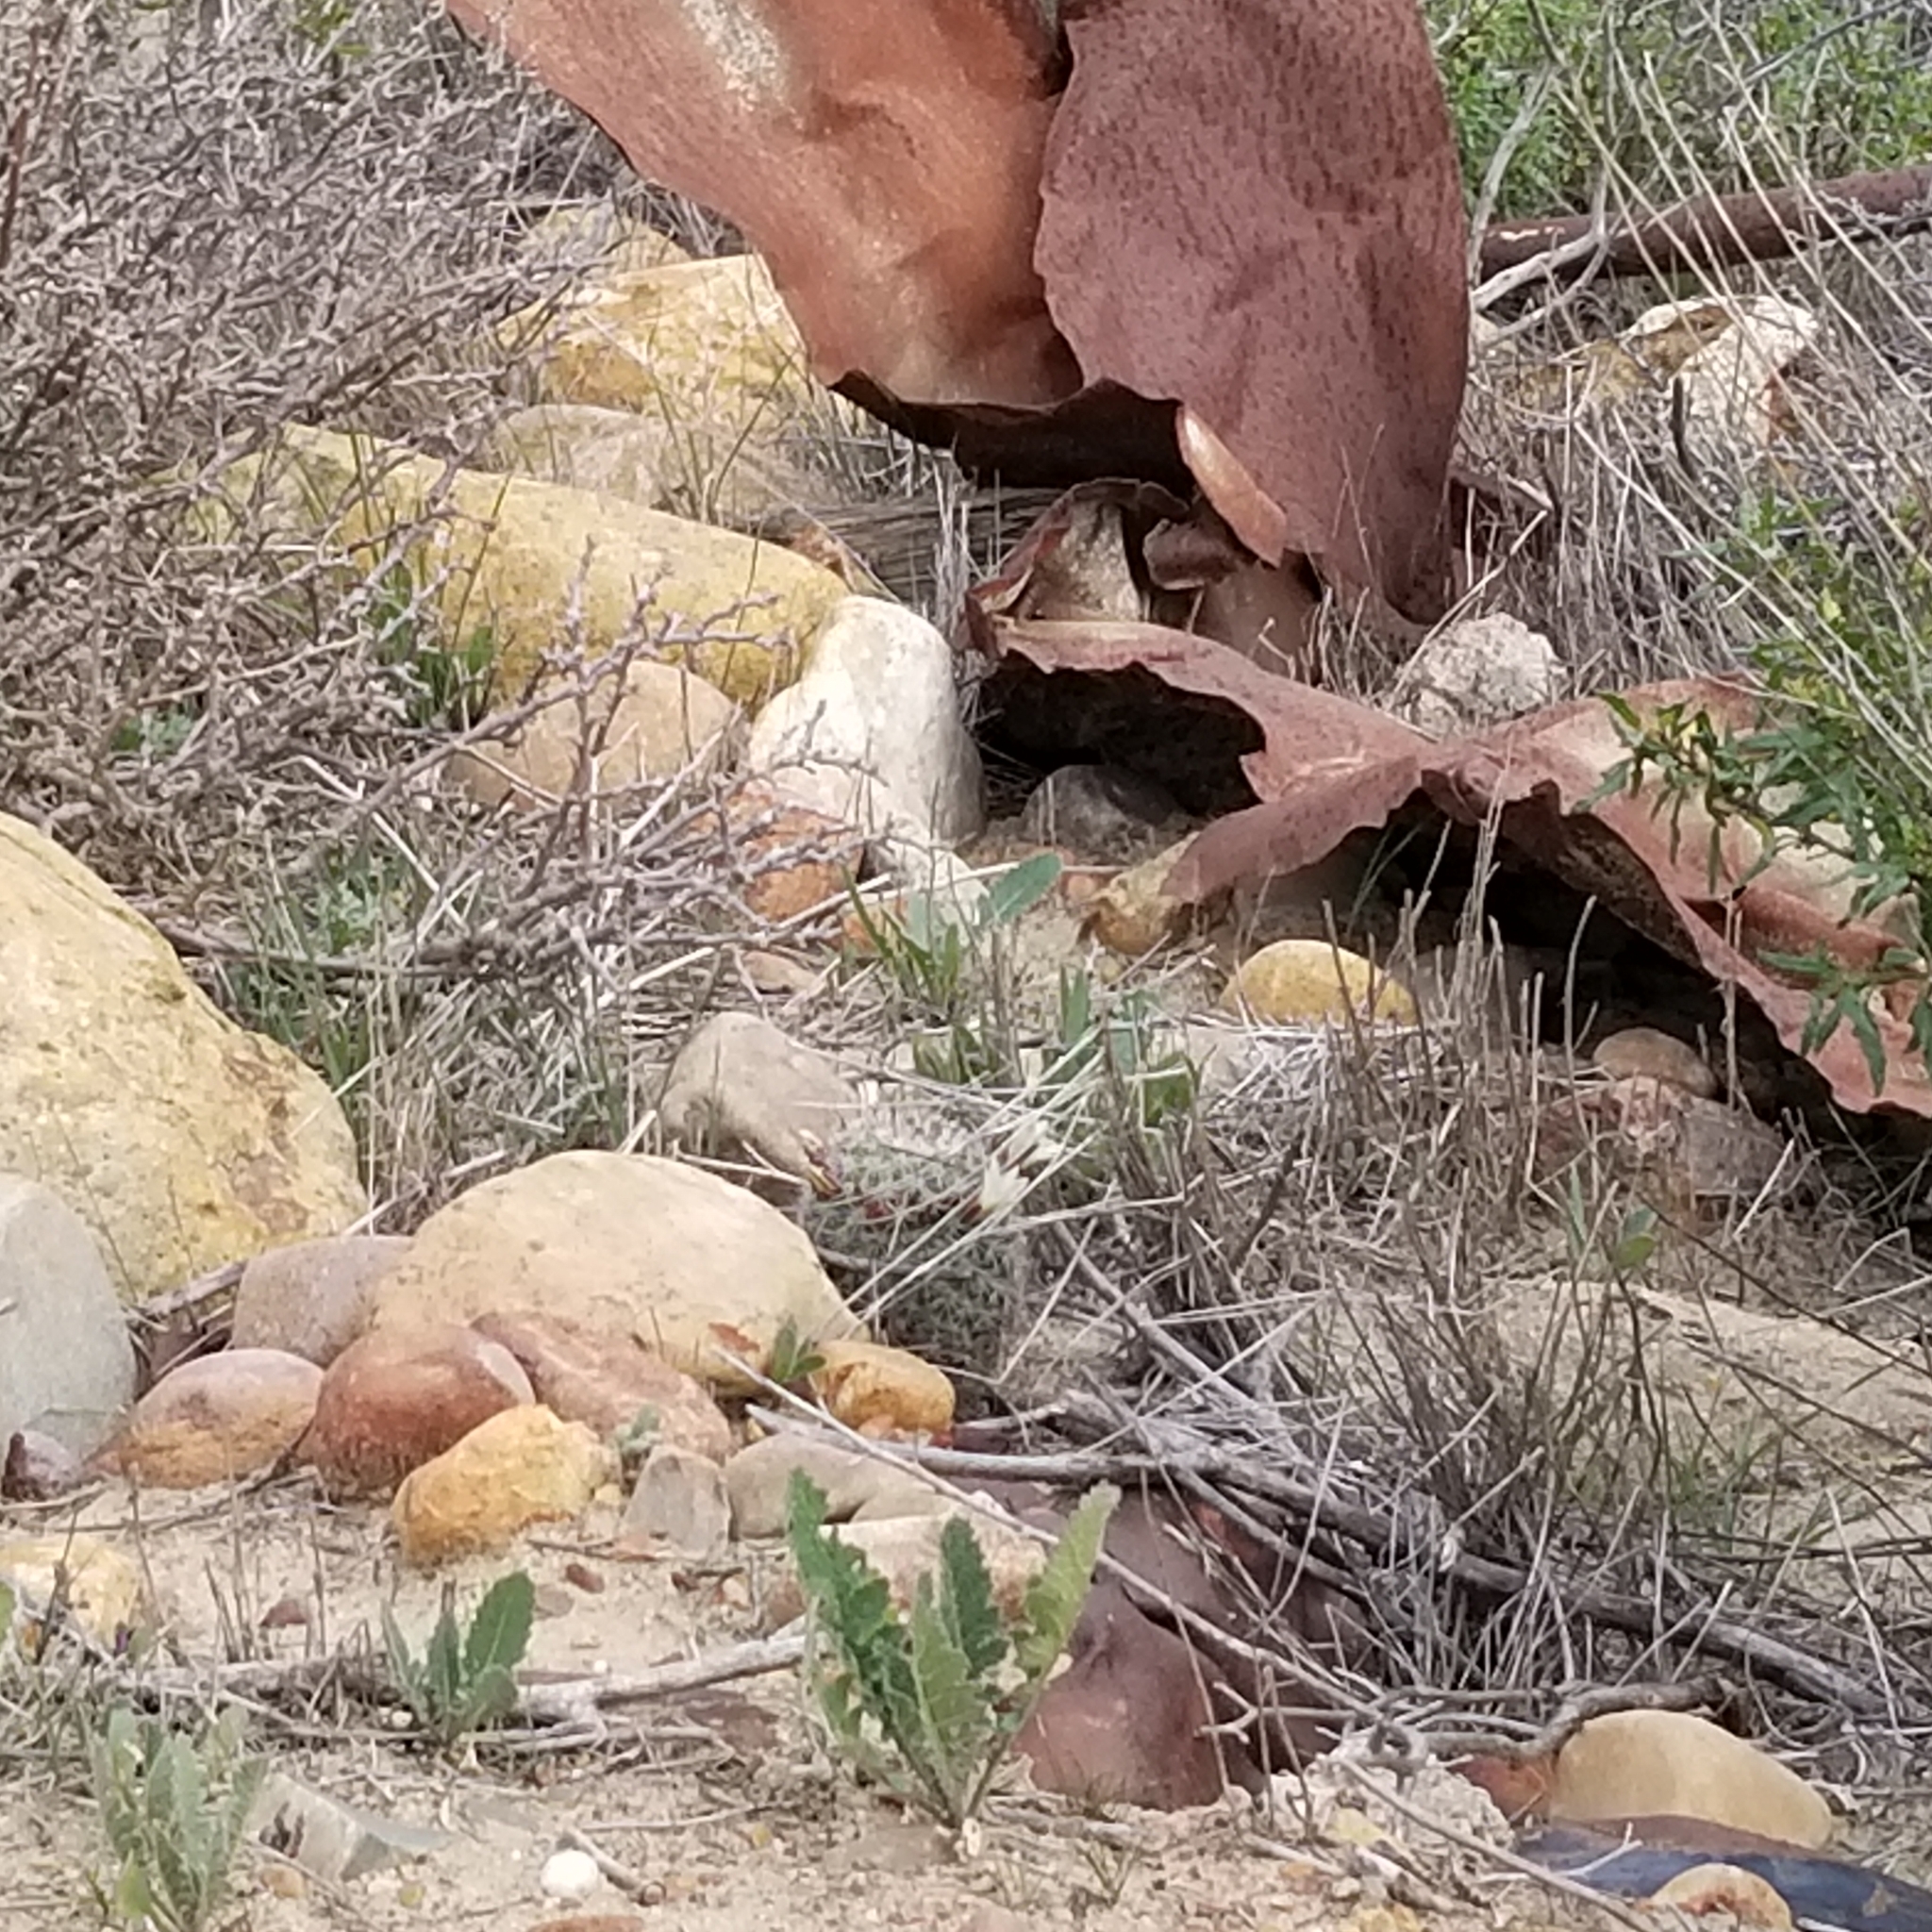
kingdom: Plantae
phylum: Tracheophyta
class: Magnoliopsida
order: Caryophyllales
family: Cactaceae
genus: Cochemiea
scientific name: Cochemiea dioica
